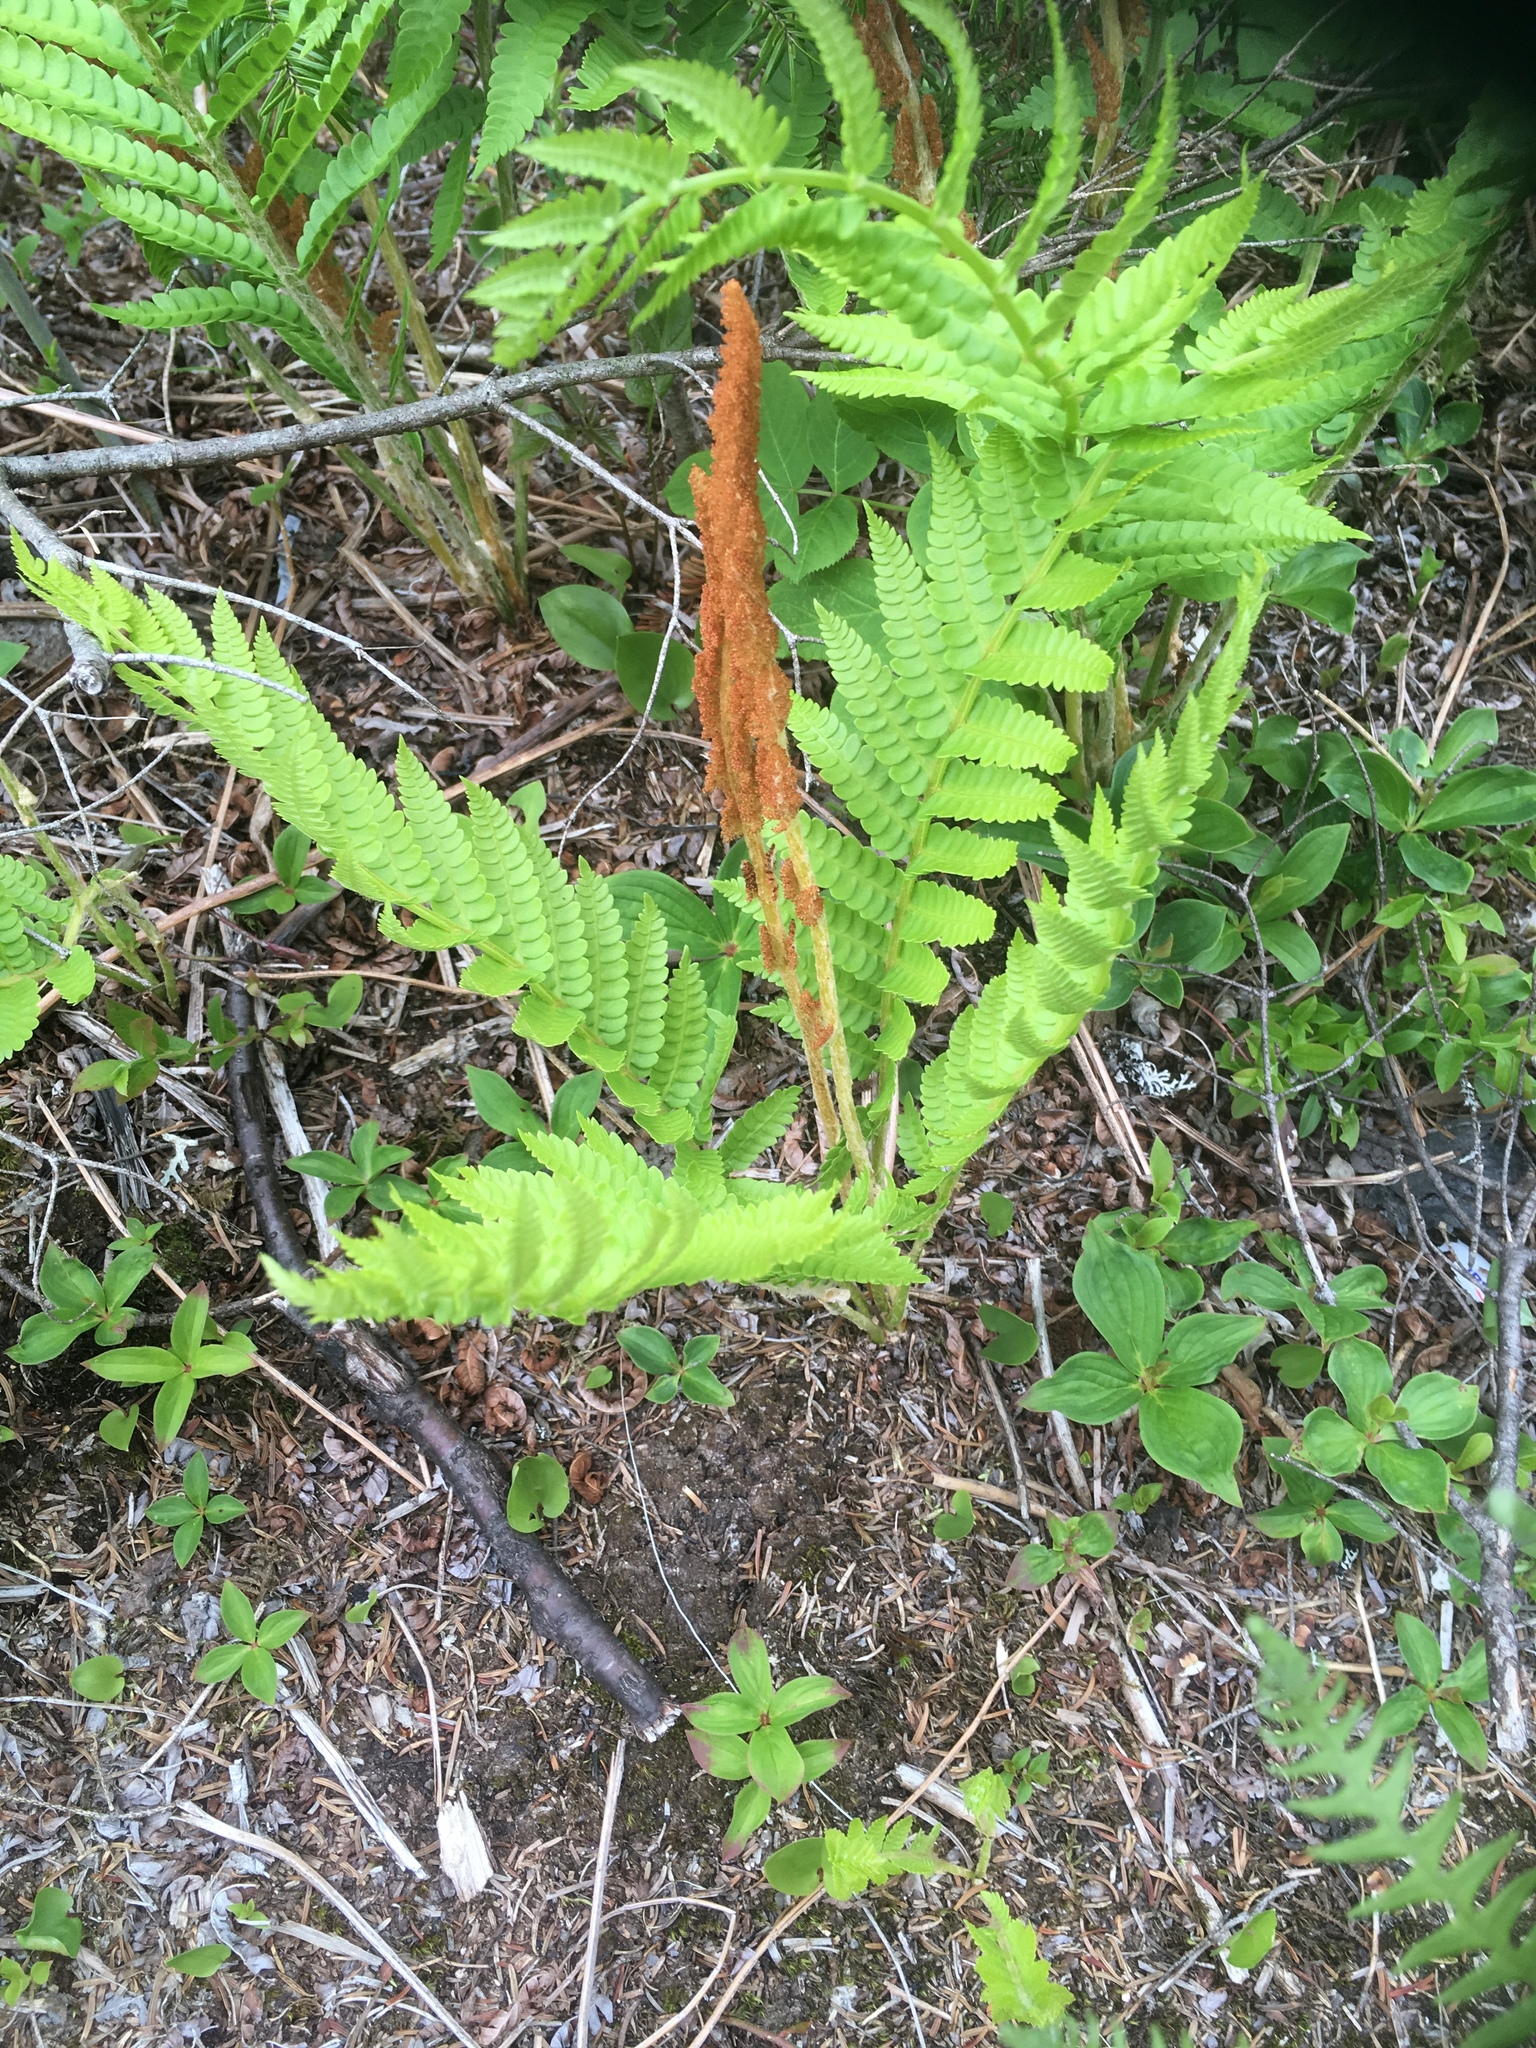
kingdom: Plantae
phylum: Tracheophyta
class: Polypodiopsida
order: Osmundales
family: Osmundaceae
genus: Osmundastrum
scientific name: Osmundastrum cinnamomeum
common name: Cinnamon fern
